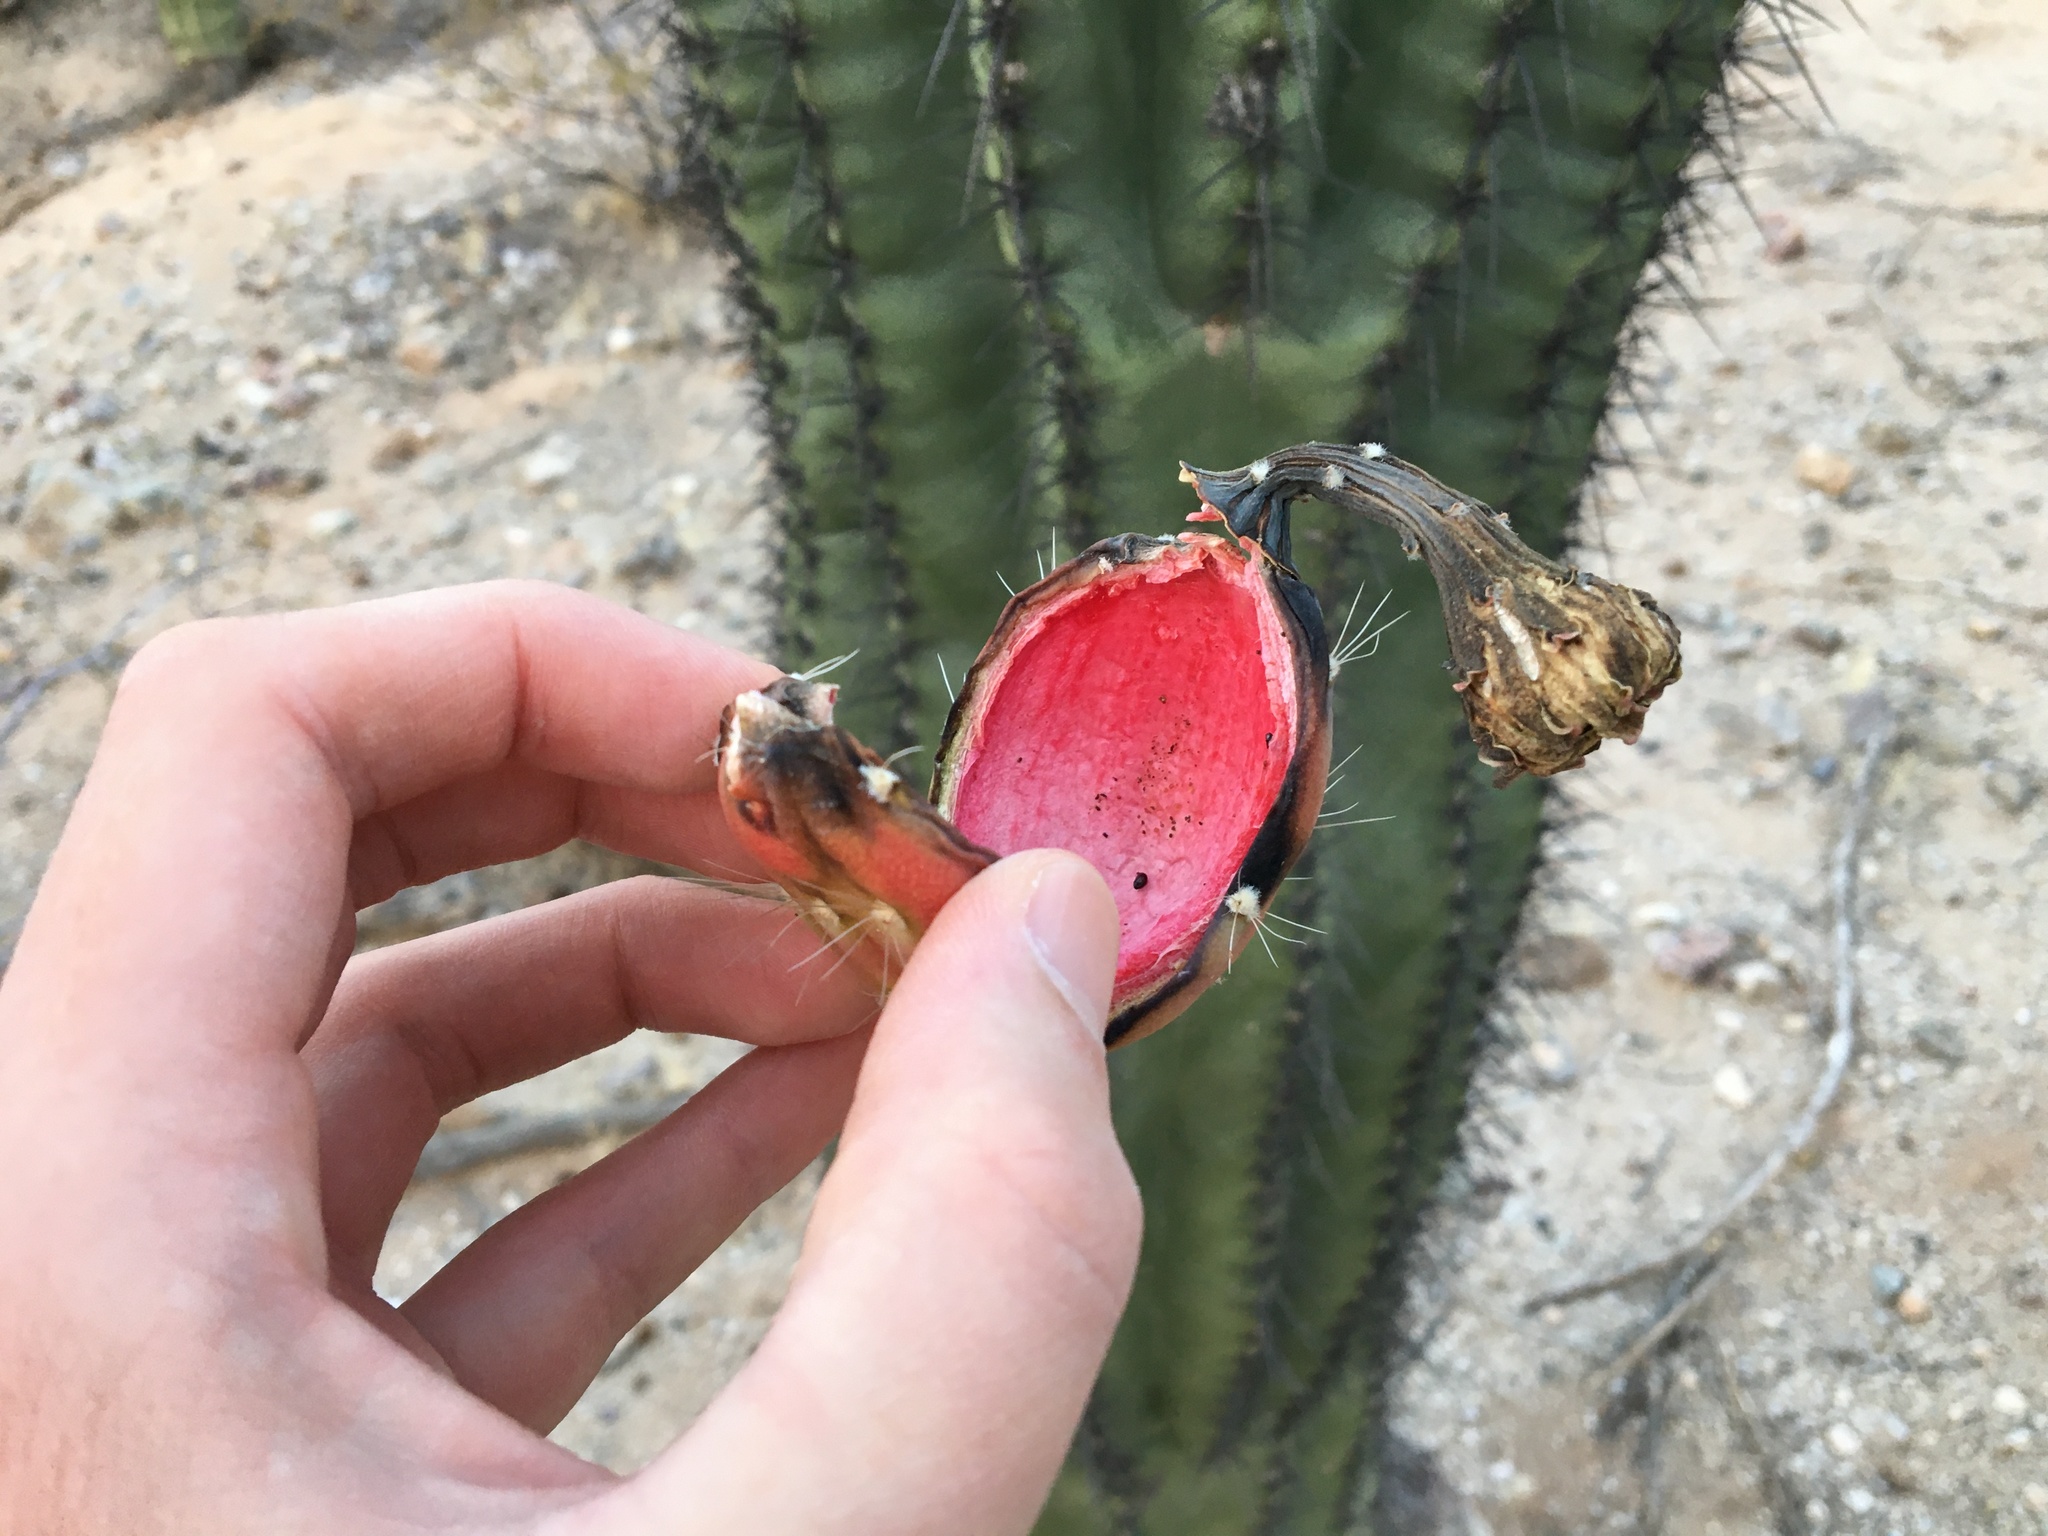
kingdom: Plantae
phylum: Tracheophyta
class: Magnoliopsida
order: Caryophyllales
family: Cactaceae
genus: Carnegiea
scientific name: Carnegiea gigantea
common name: Saguaro
